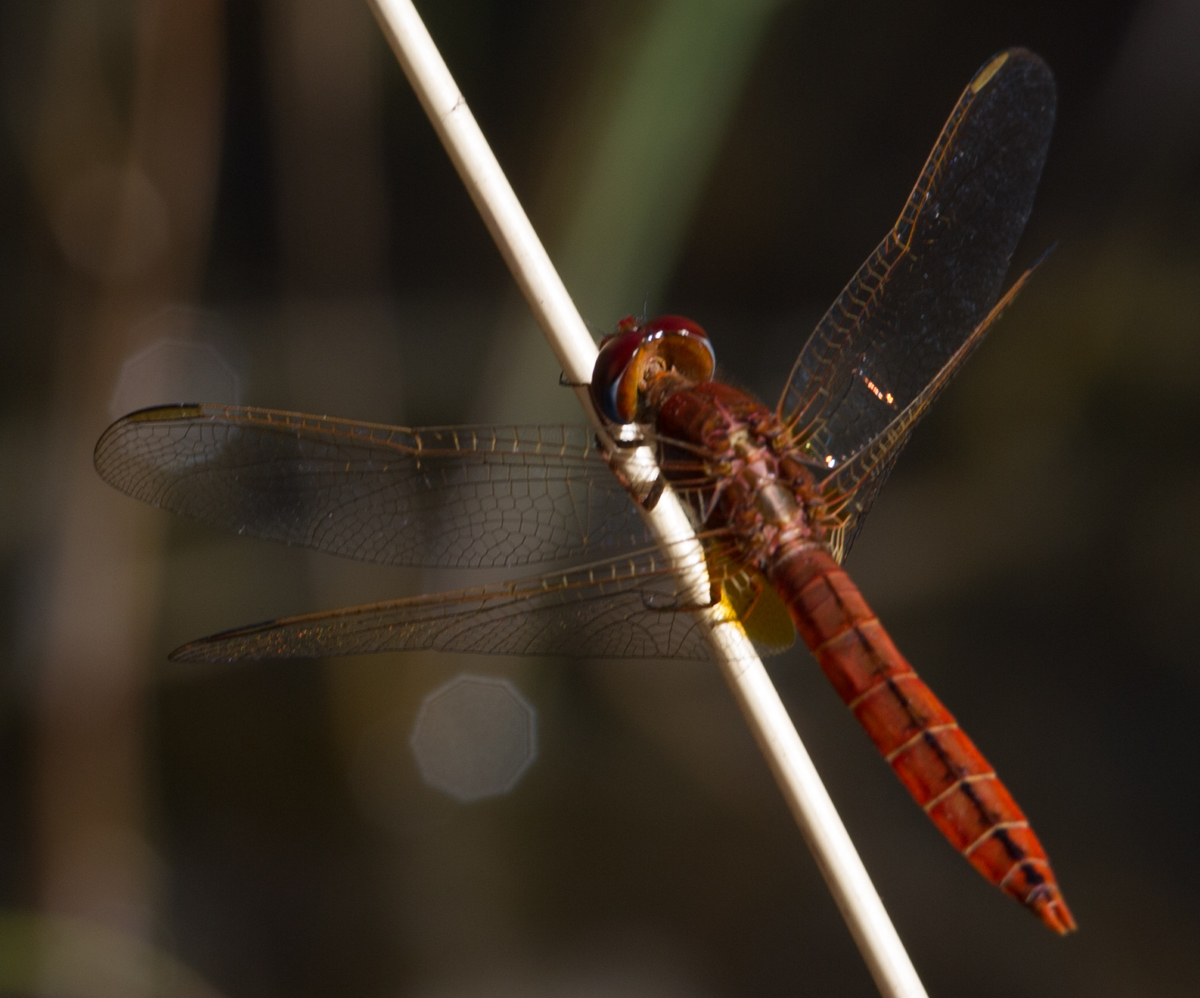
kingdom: Animalia
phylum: Arthropoda
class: Insecta
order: Odonata
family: Libellulidae
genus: Crocothemis
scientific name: Crocothemis erythraea
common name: Scarlet dragonfly
